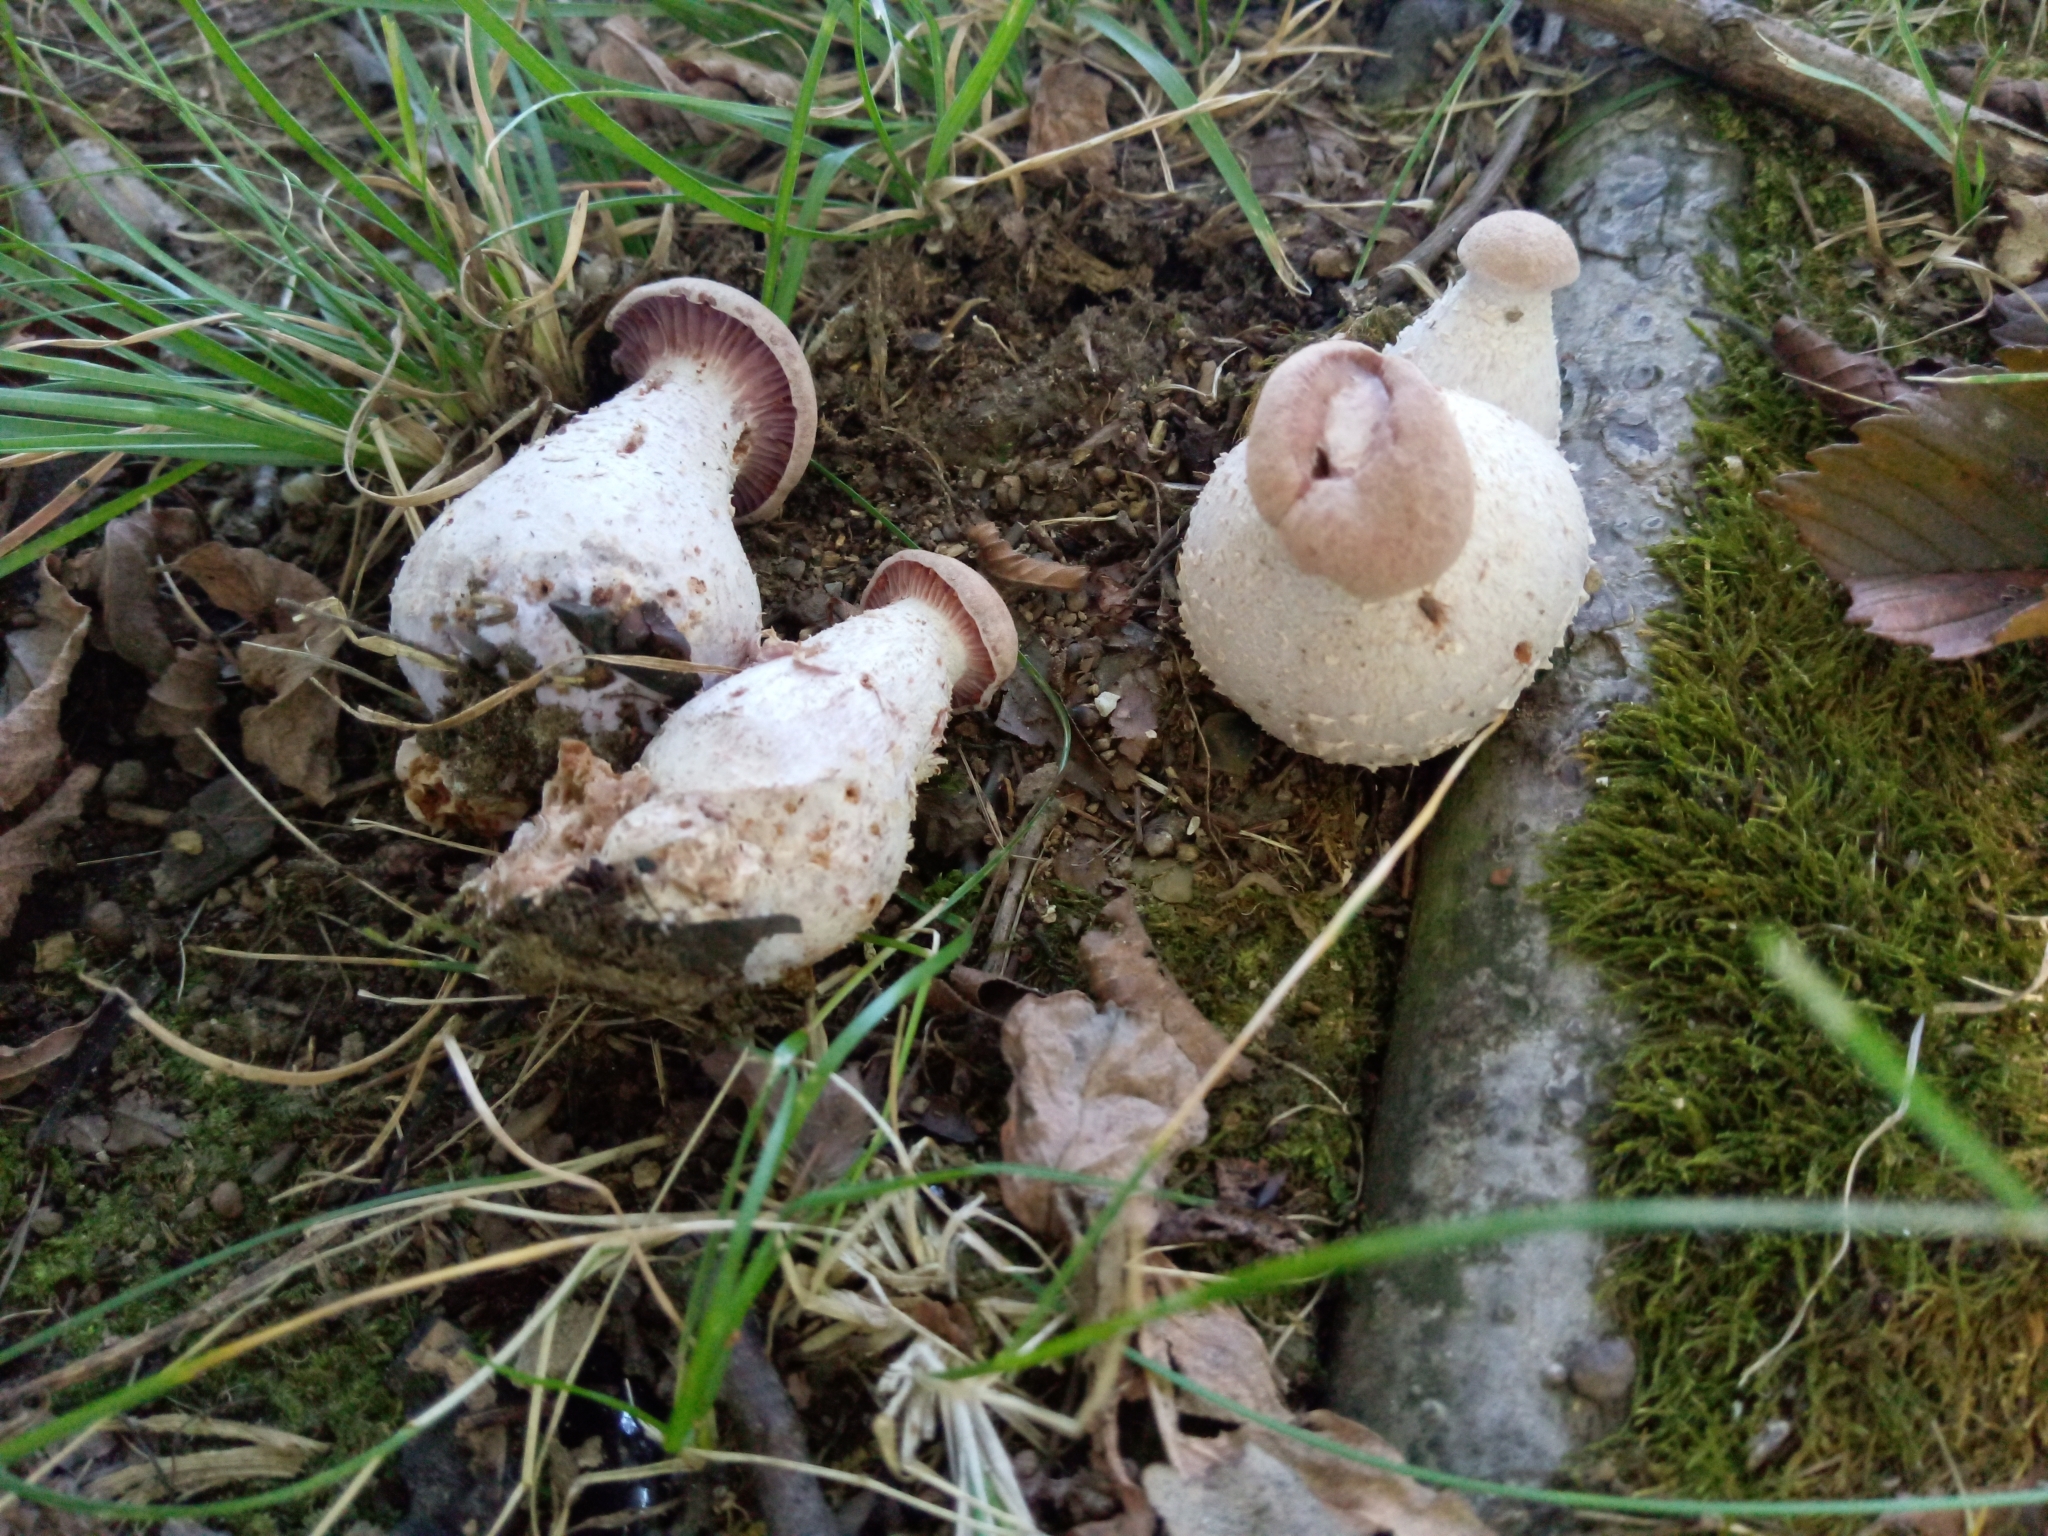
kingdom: Fungi
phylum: Basidiomycota
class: Agaricomycetes
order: Agaricales
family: Hydnangiaceae
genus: Laccaria
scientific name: Laccaria ochropurpurea
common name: Purple laccaria
